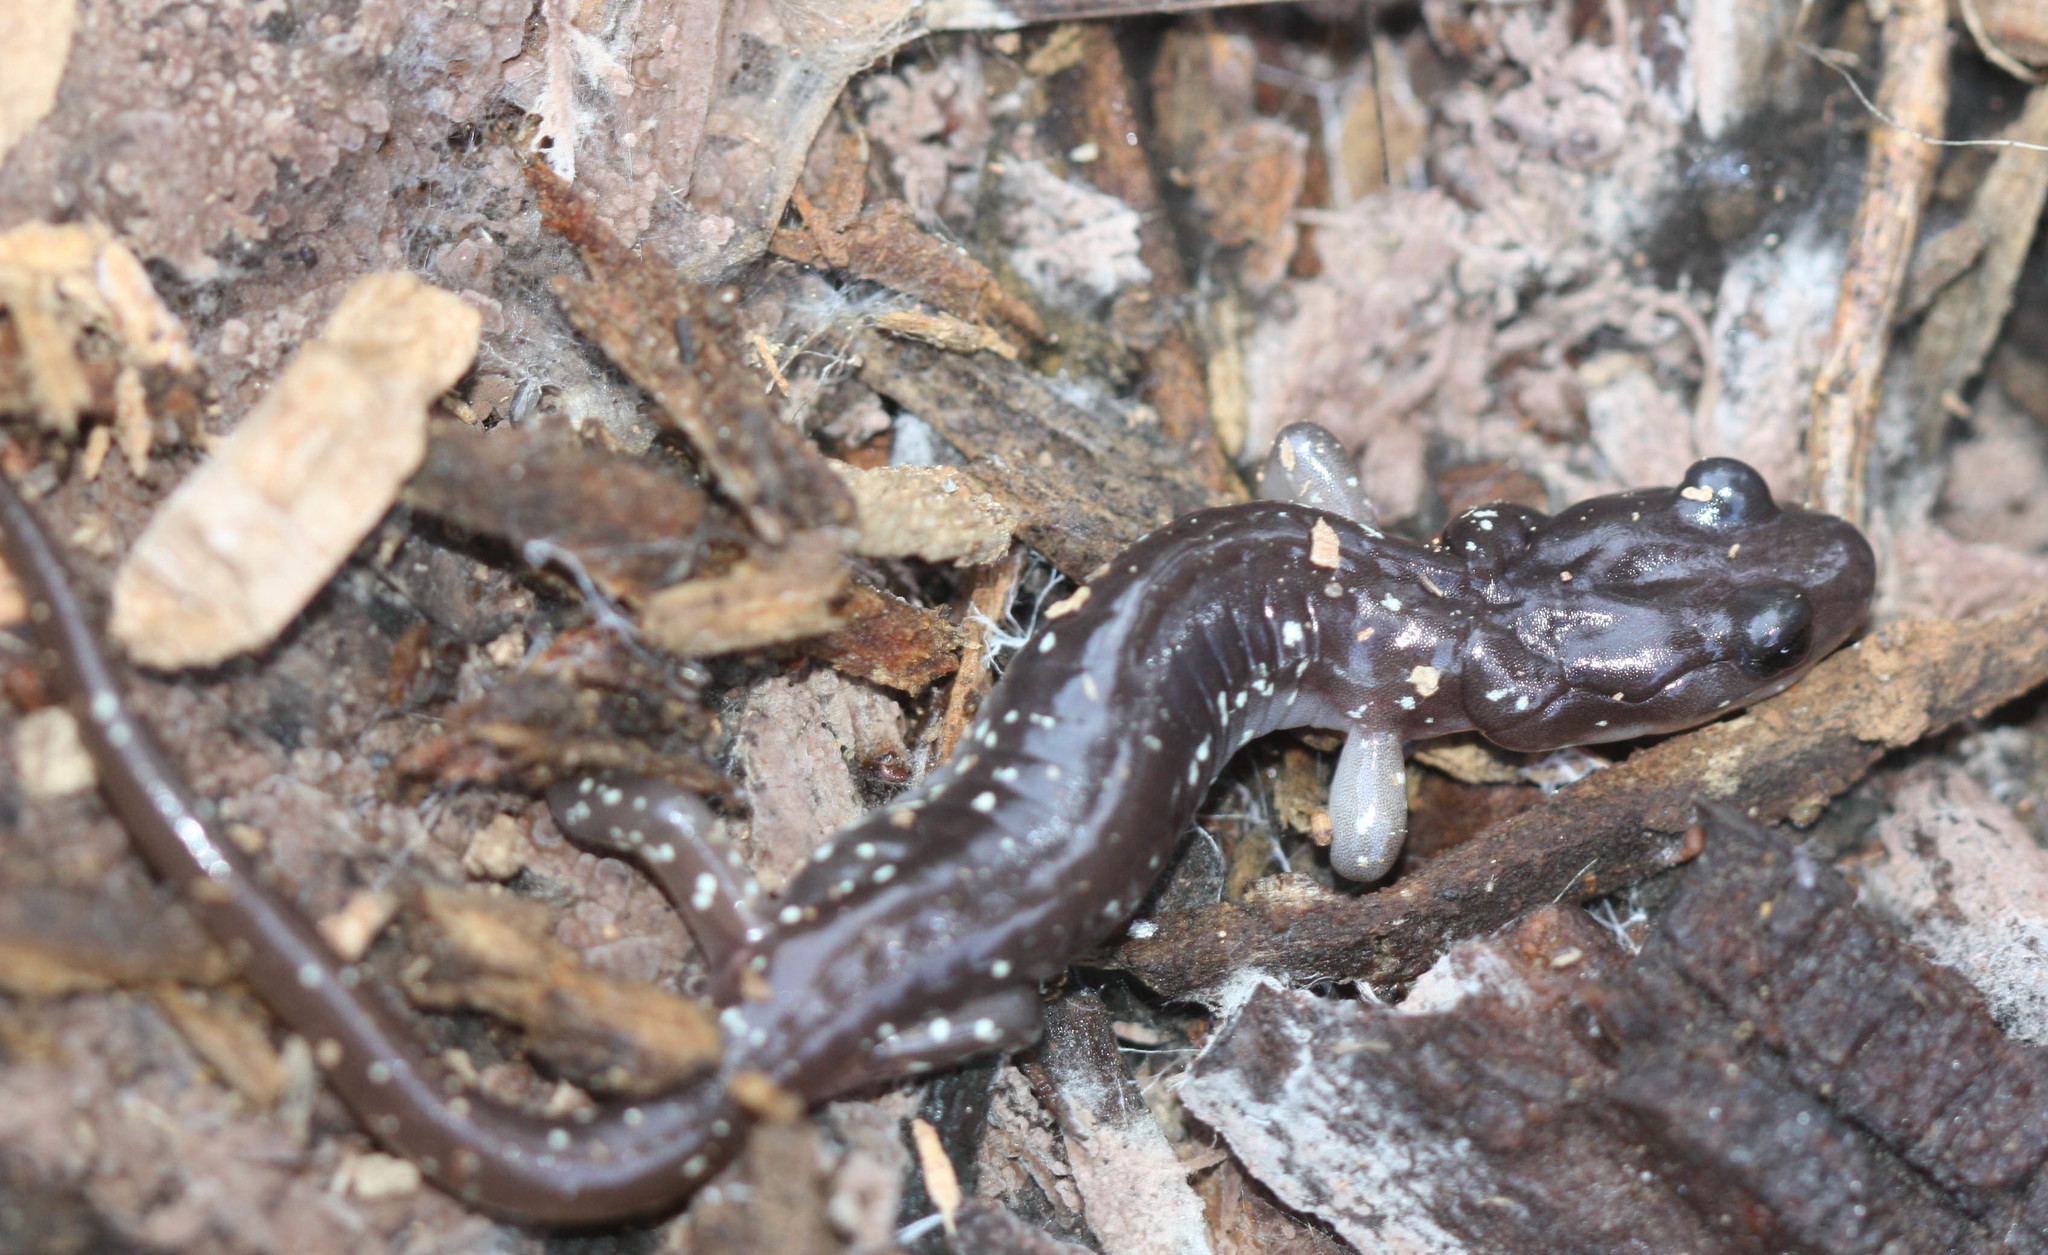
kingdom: Animalia
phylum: Chordata
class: Amphibia
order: Caudata
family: Plethodontidae
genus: Aneides
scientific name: Aneides lugubris
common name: Arboreal salamander
